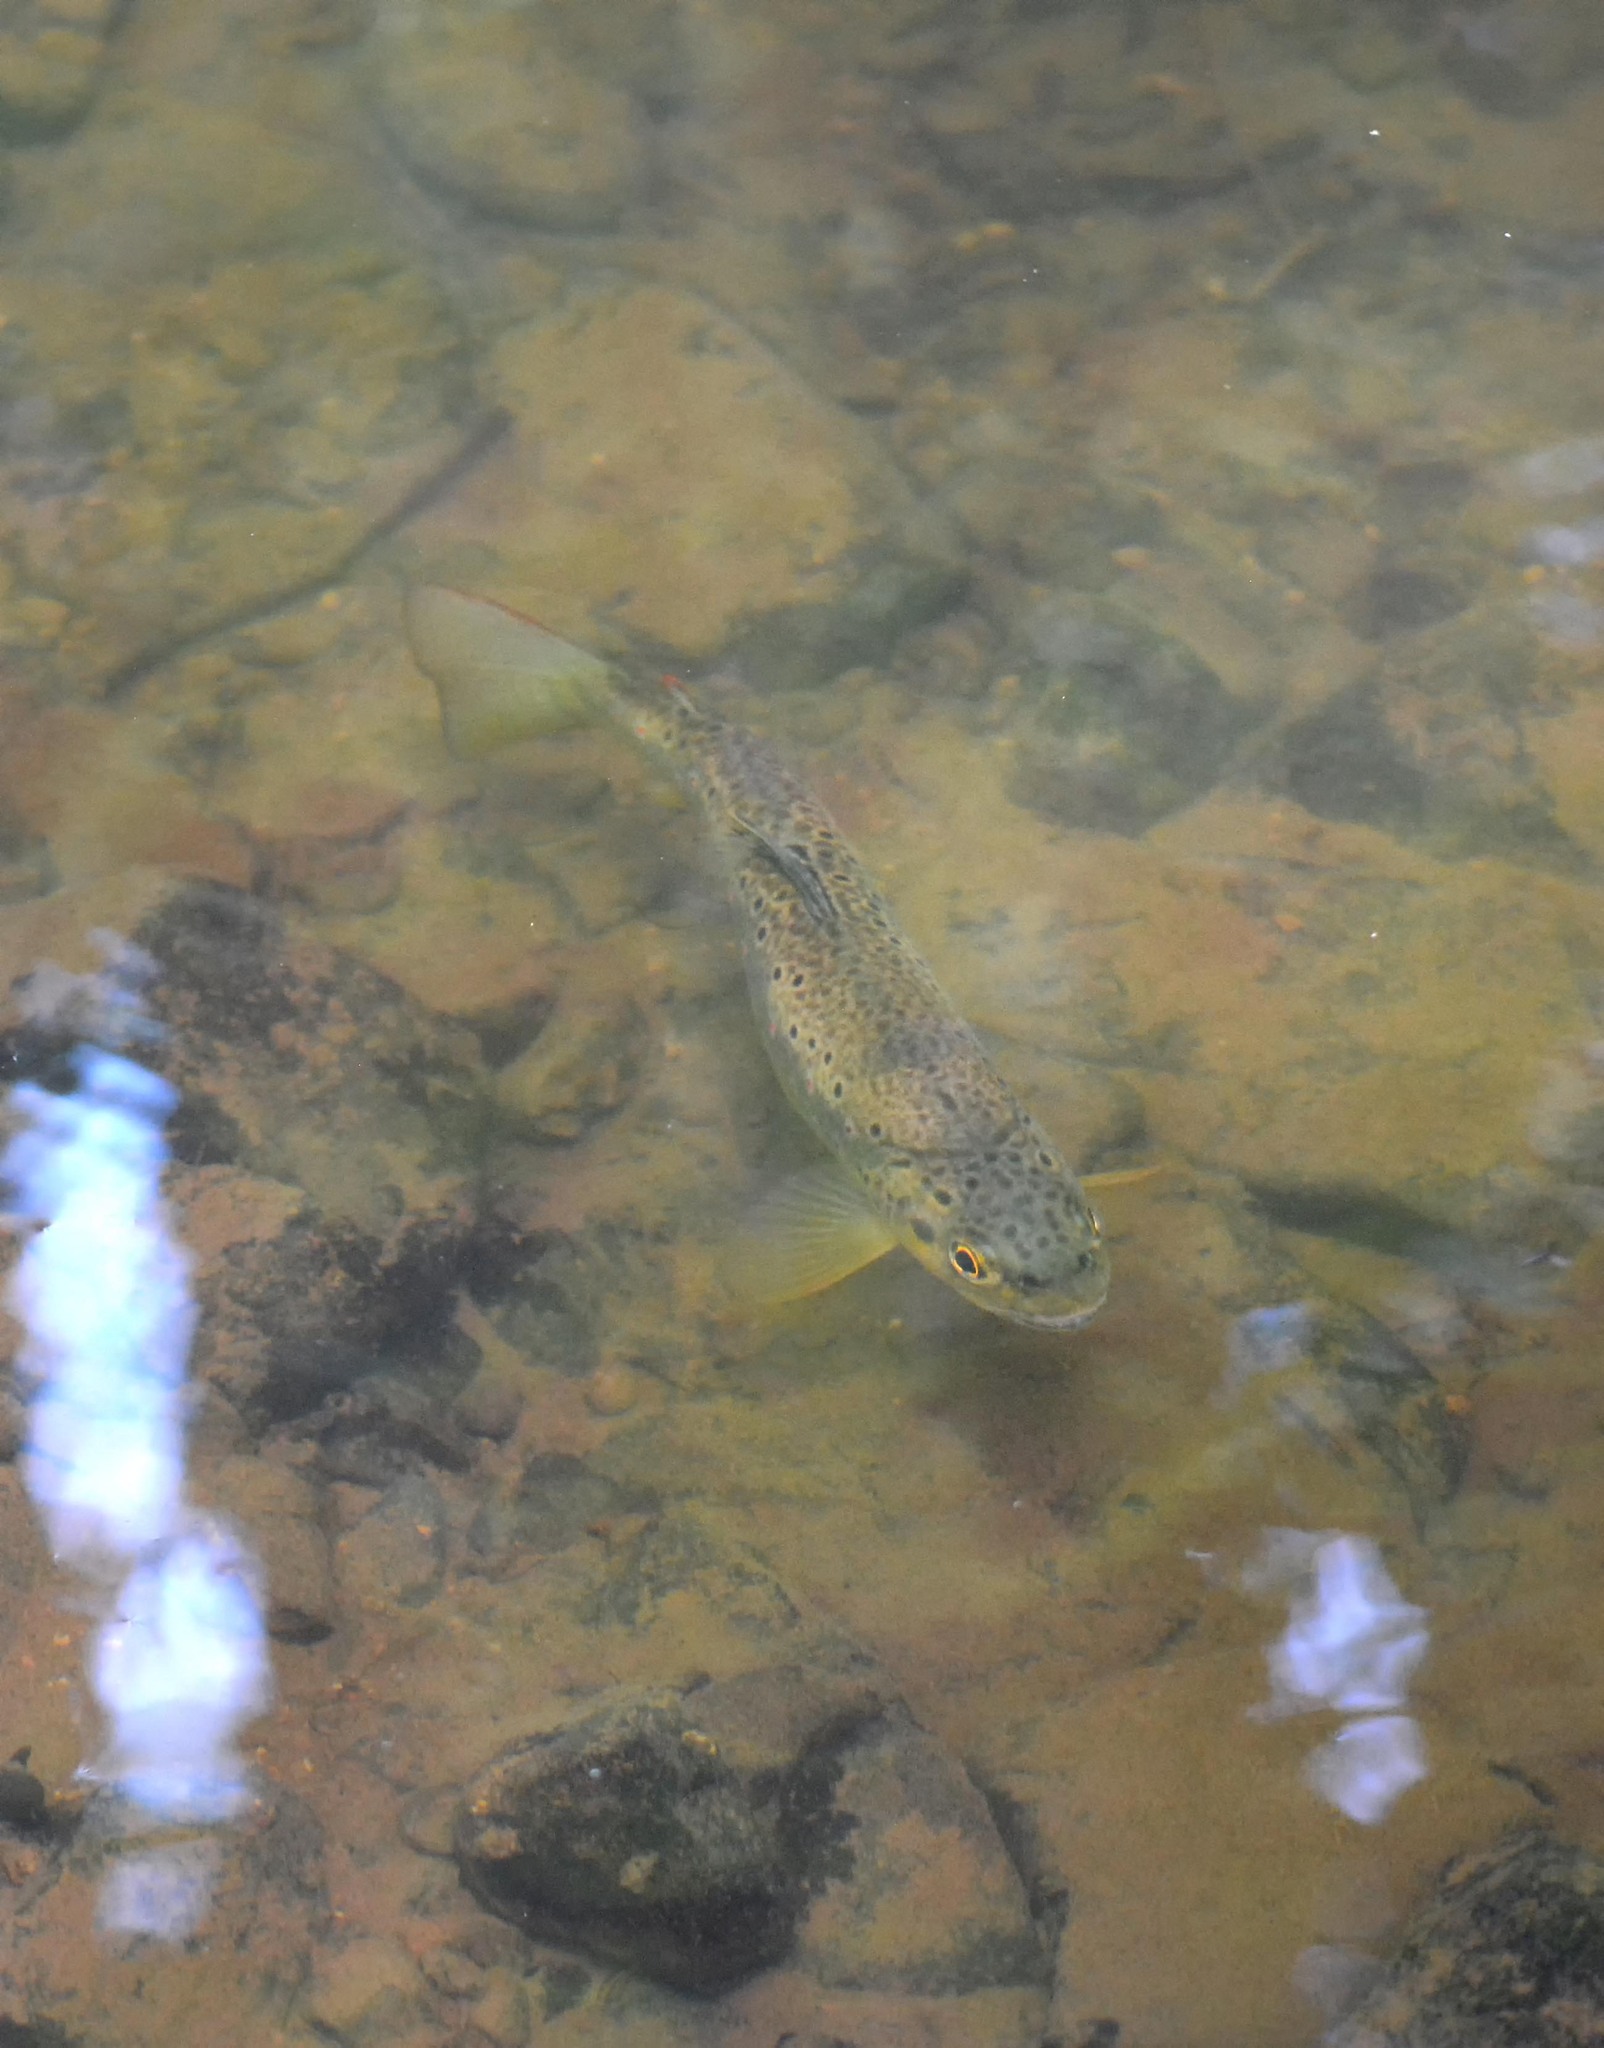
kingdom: Animalia
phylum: Chordata
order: Salmoniformes
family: Salmonidae
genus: Salmo
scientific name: Salmo trutta
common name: Brown trout
